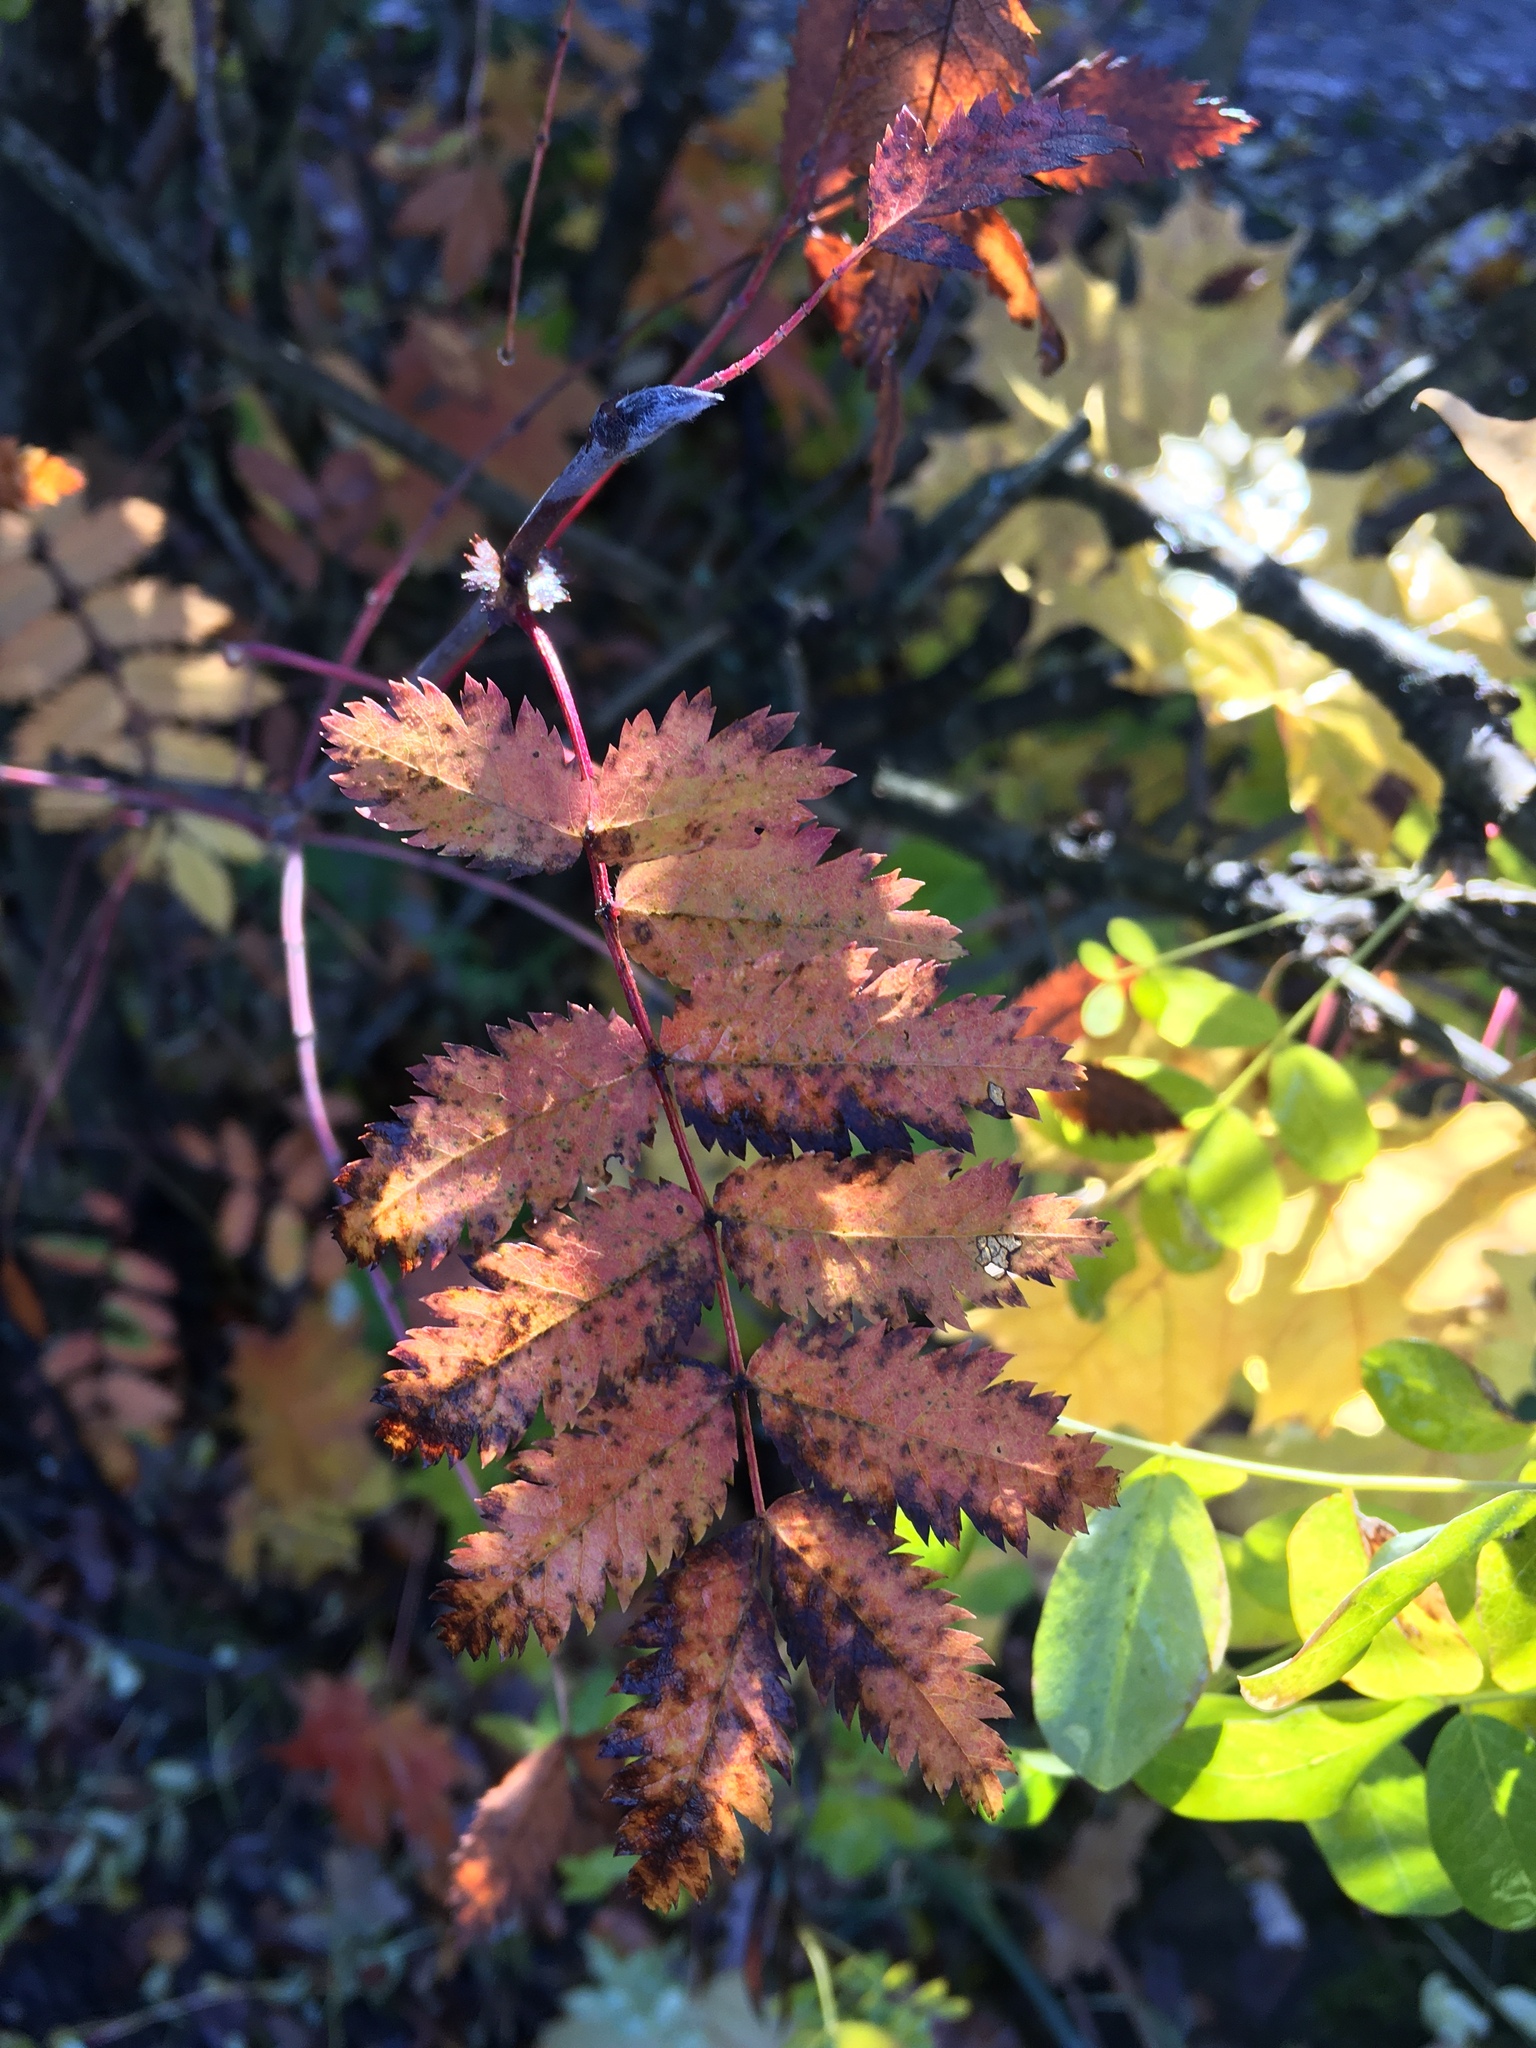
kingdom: Plantae
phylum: Tracheophyta
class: Magnoliopsida
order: Rosales
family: Rosaceae
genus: Sorbus
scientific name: Sorbus aucuparia
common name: Rowan
